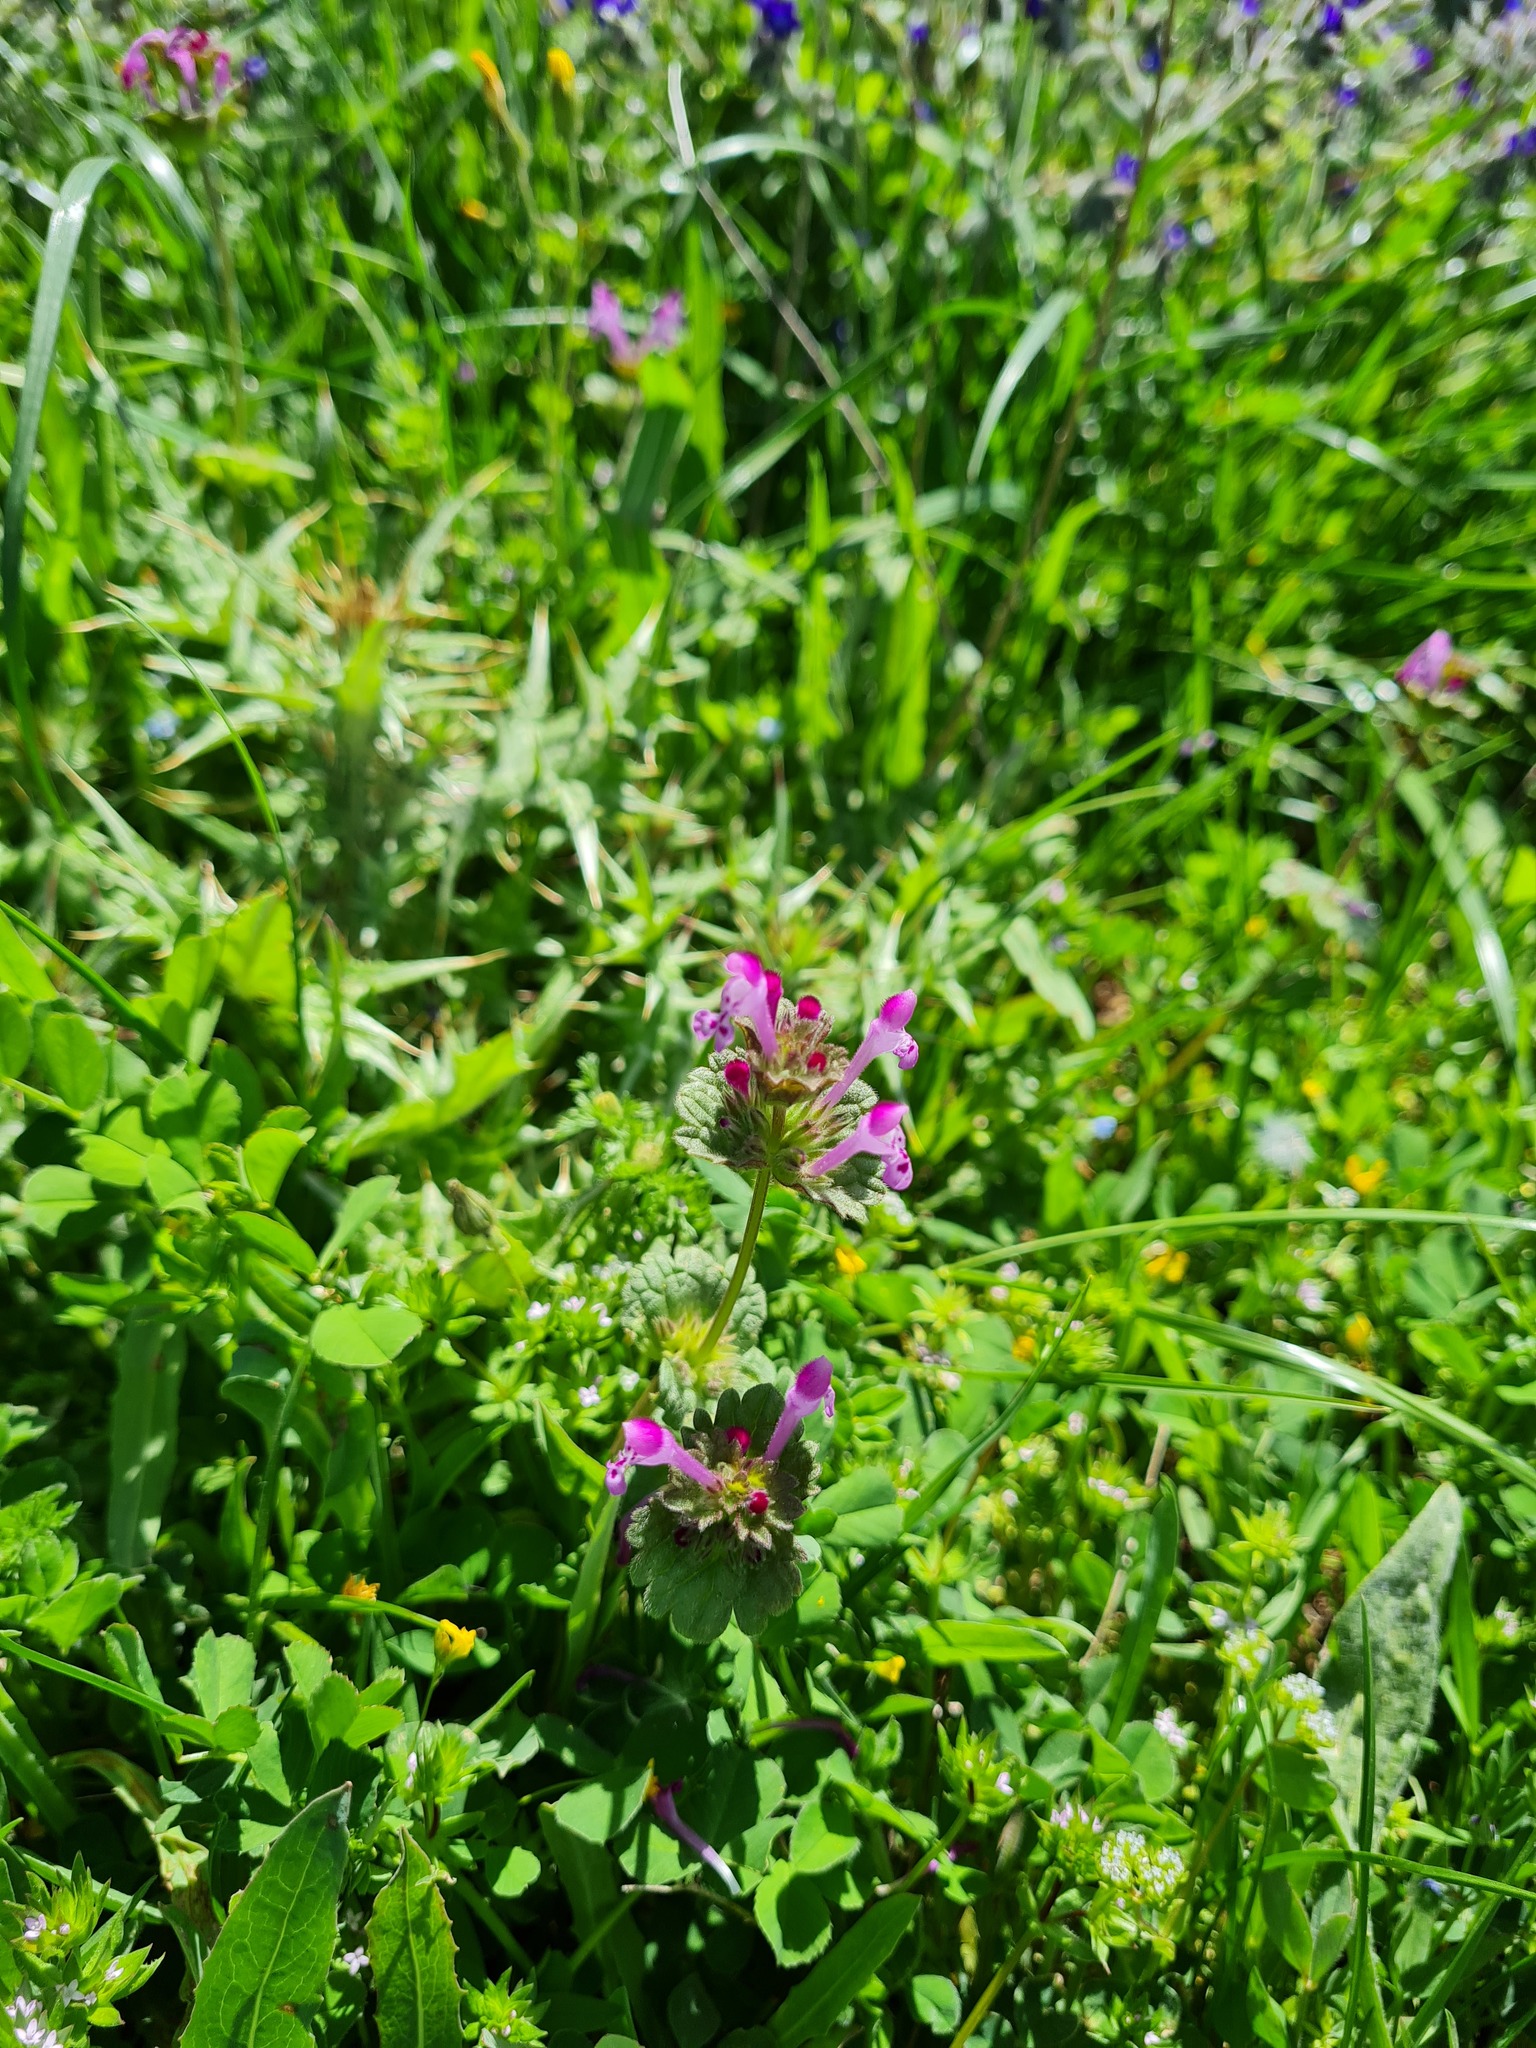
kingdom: Plantae
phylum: Tracheophyta
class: Magnoliopsida
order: Lamiales
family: Lamiaceae
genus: Lamium
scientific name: Lamium amplexicaule
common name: Henbit dead-nettle
